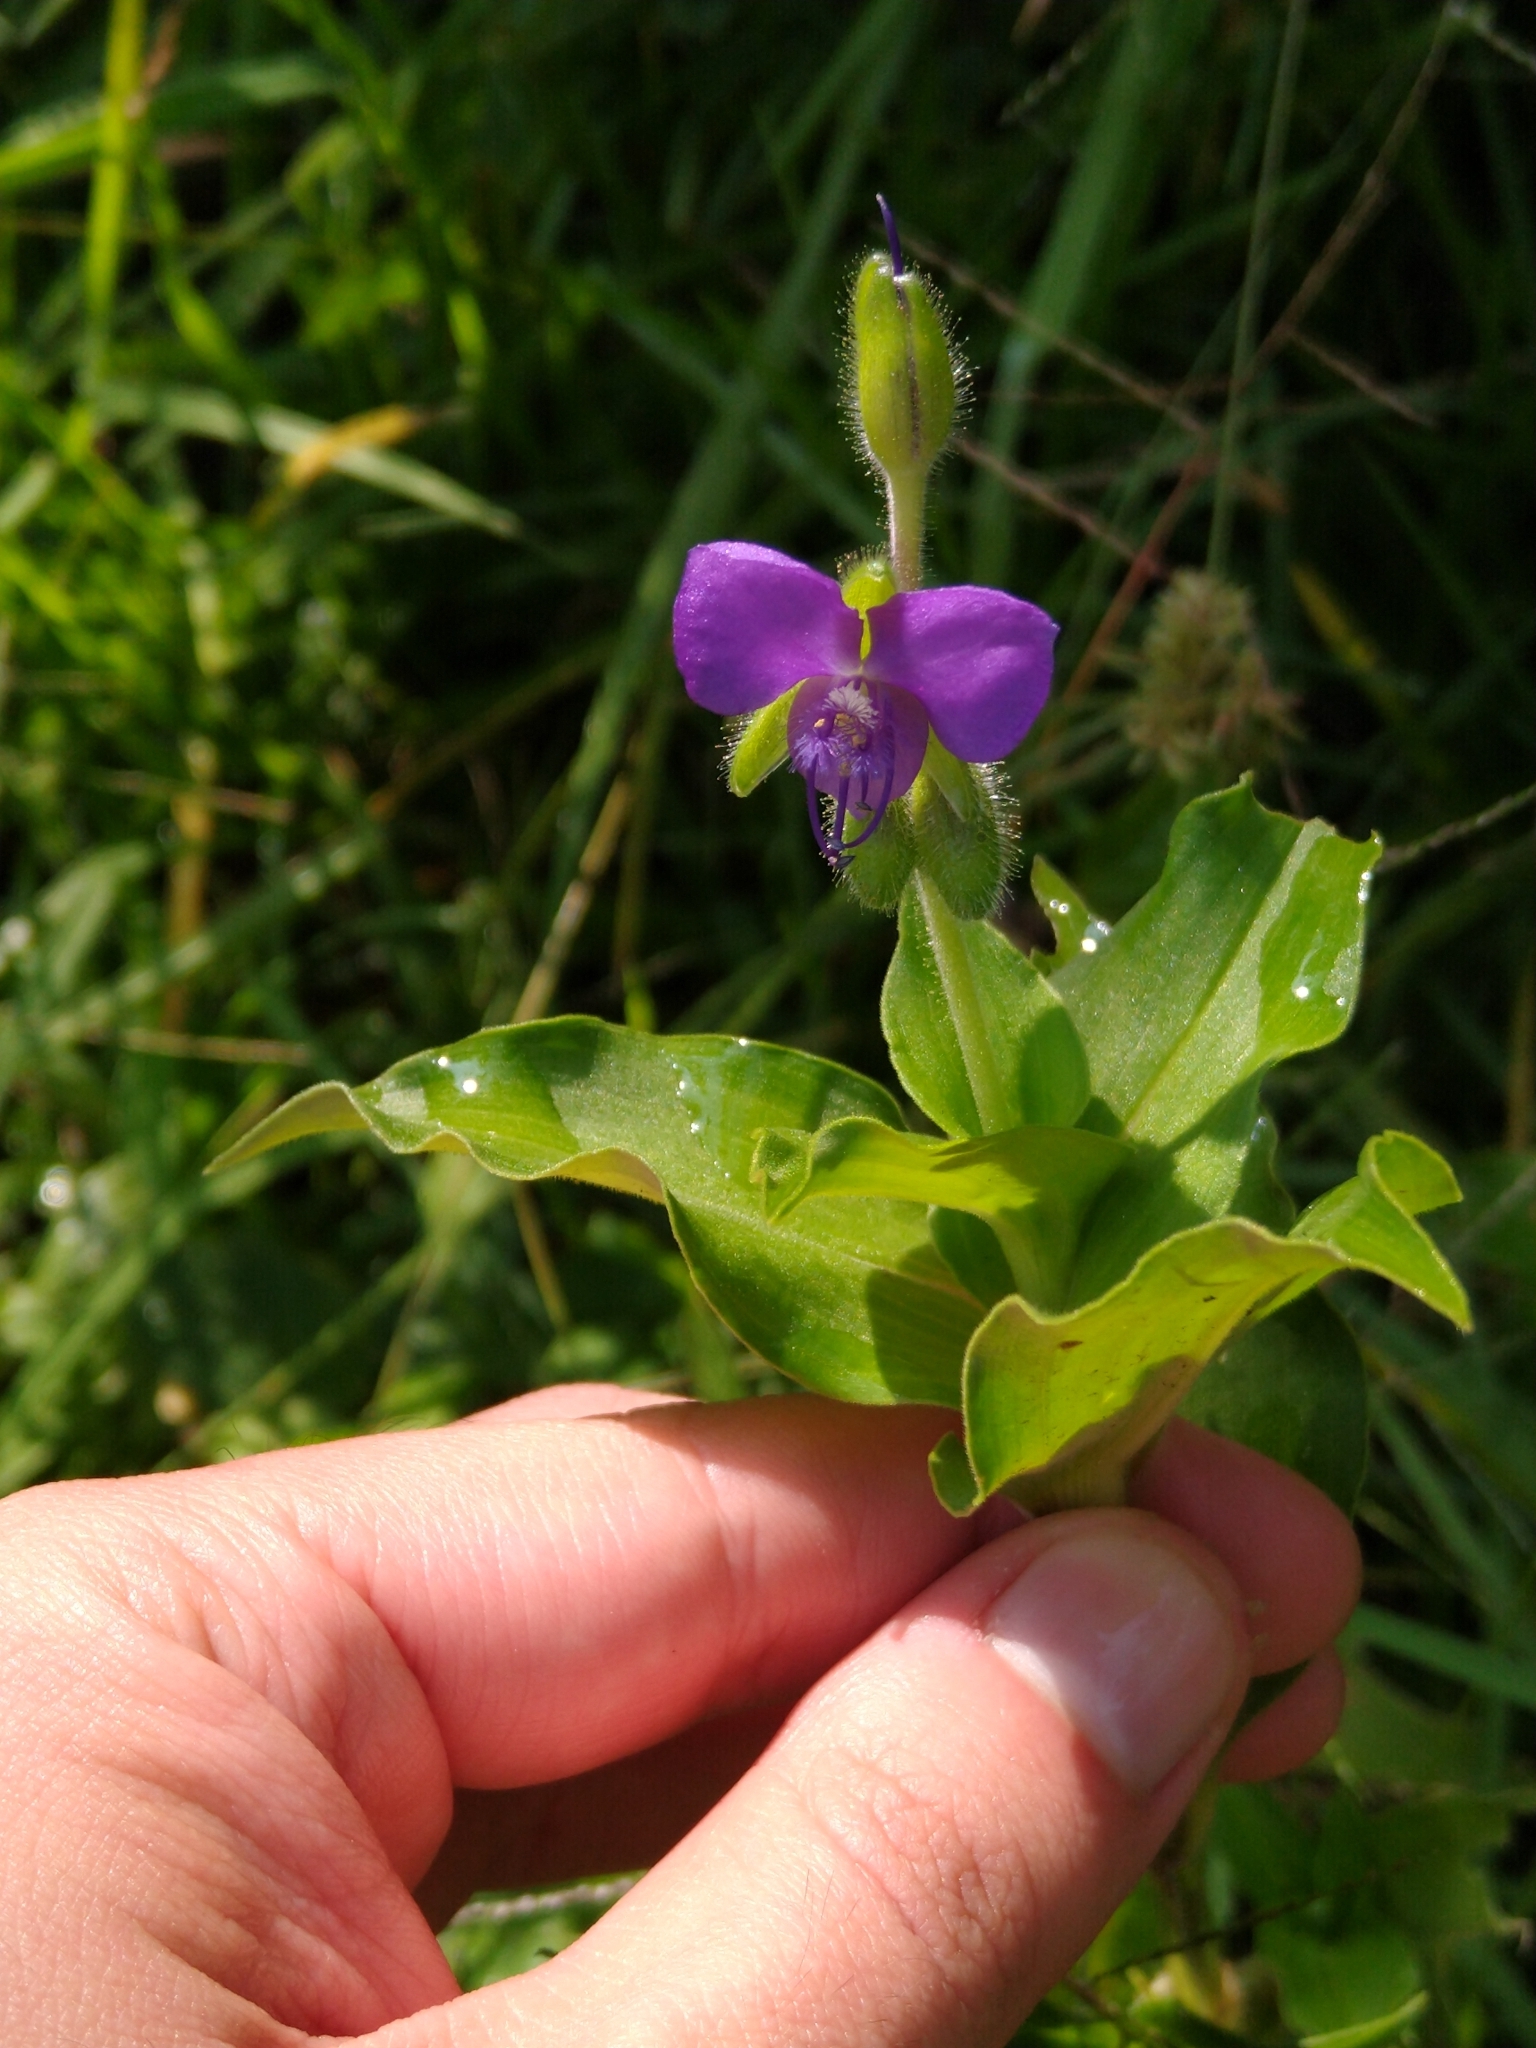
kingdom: Plantae
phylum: Tracheophyta
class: Liliopsida
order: Commelinales
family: Commelinaceae
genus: Tinantia
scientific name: Tinantia erecta
